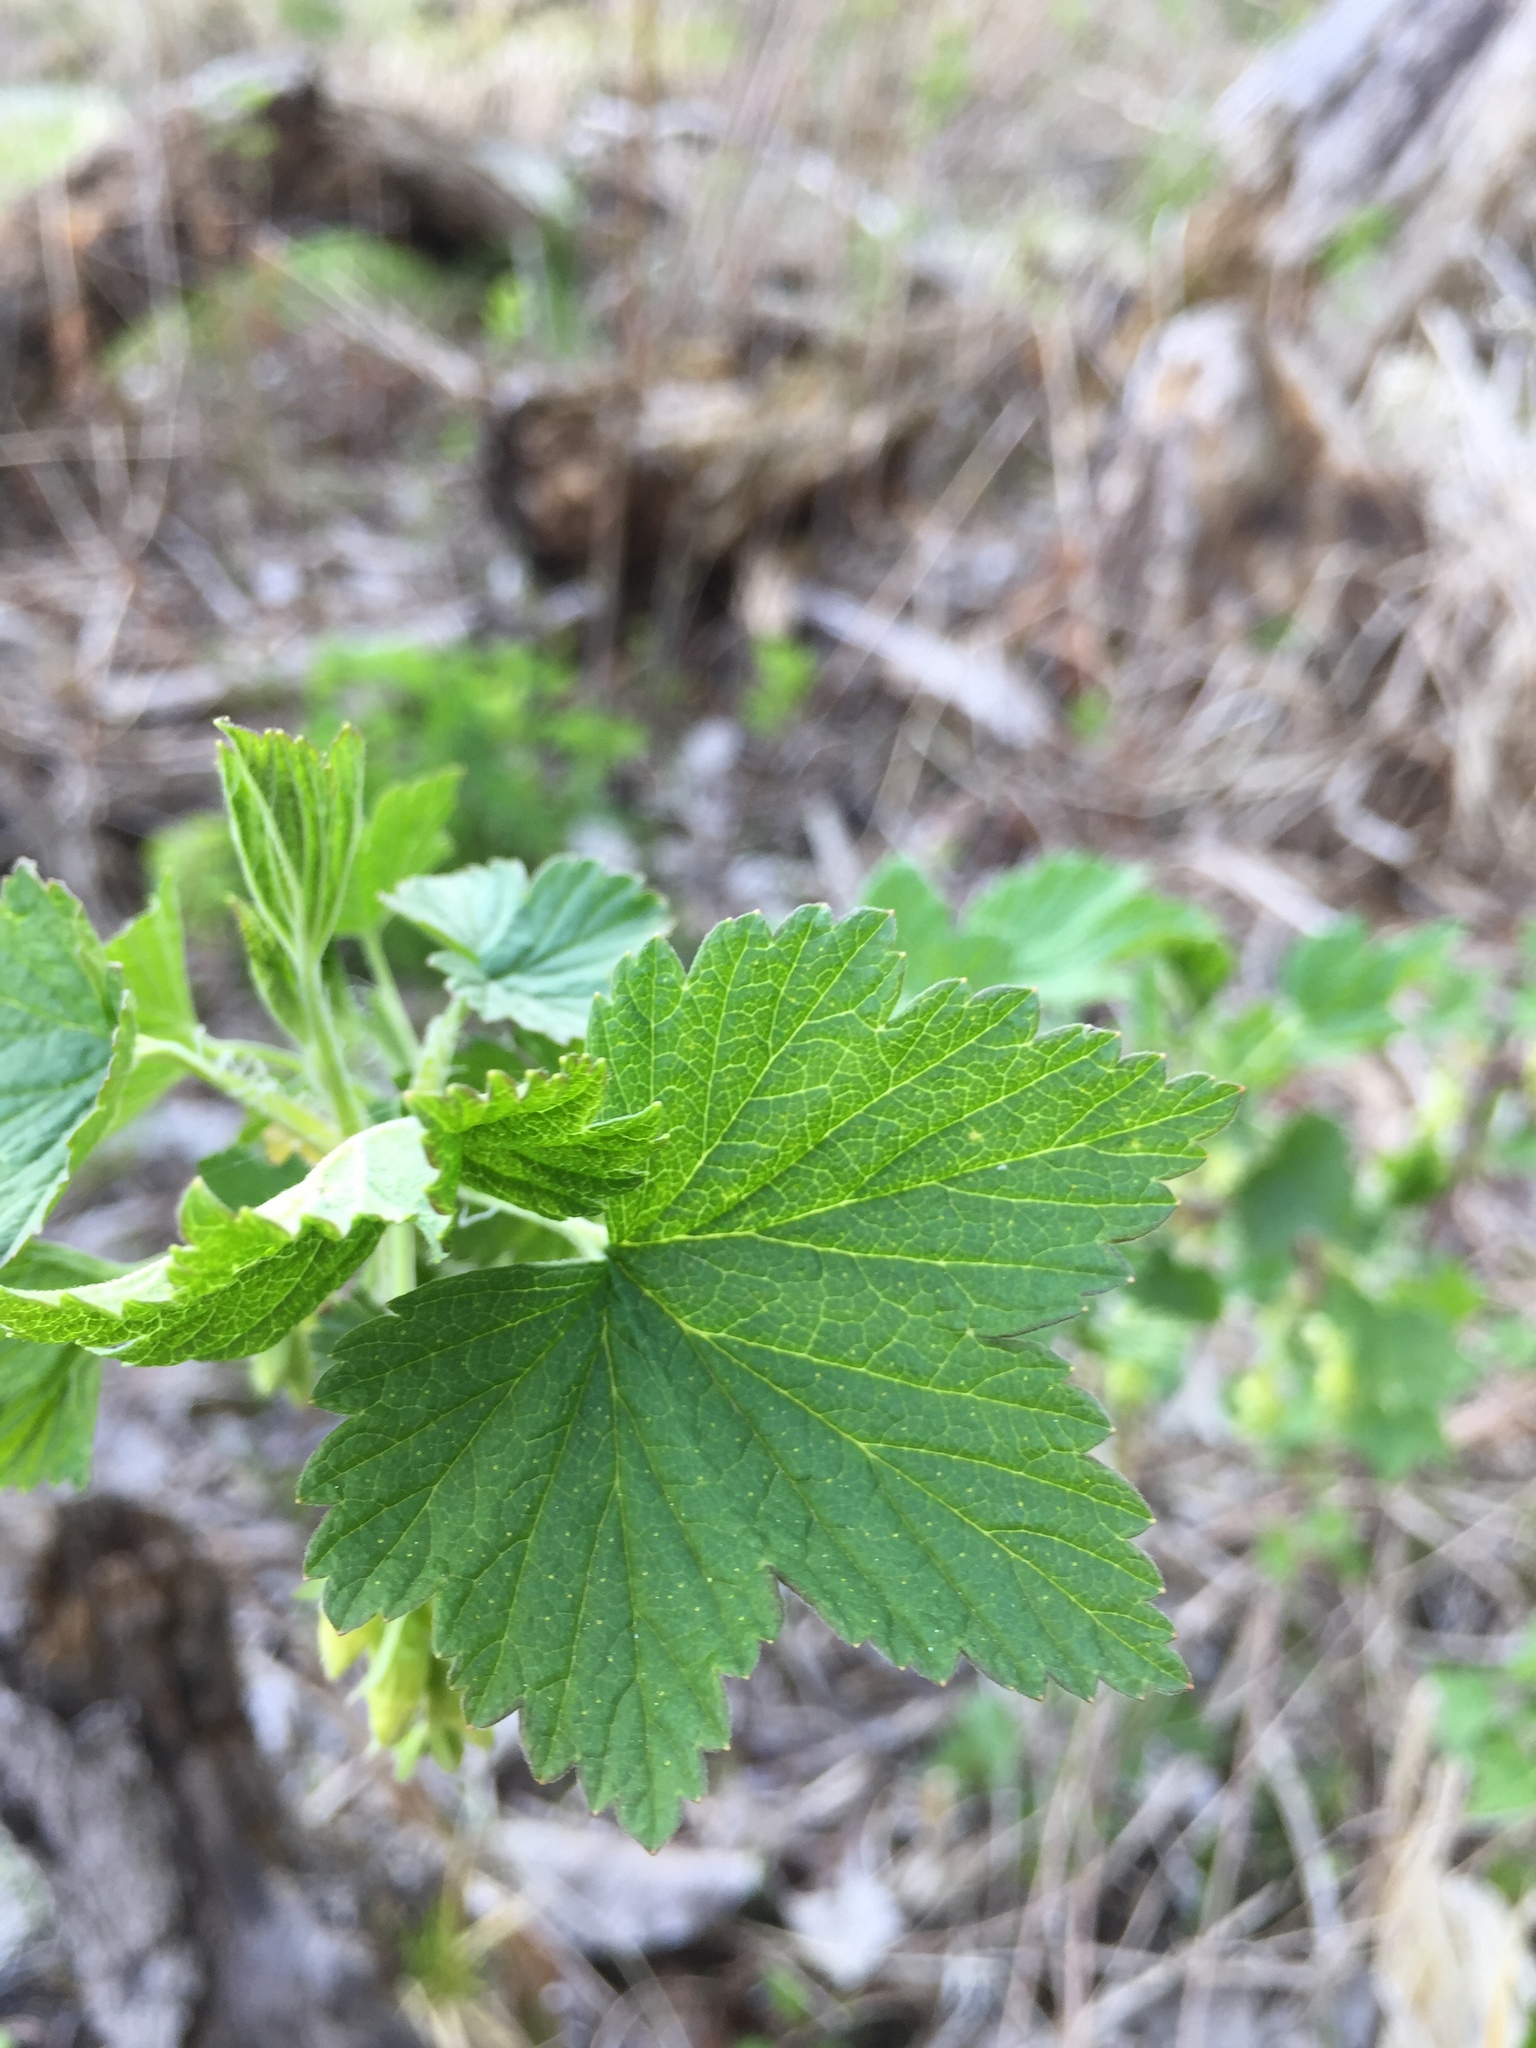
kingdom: Plantae
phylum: Tracheophyta
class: Magnoliopsida
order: Saxifragales
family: Grossulariaceae
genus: Ribes
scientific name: Ribes americanum
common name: American black currant
